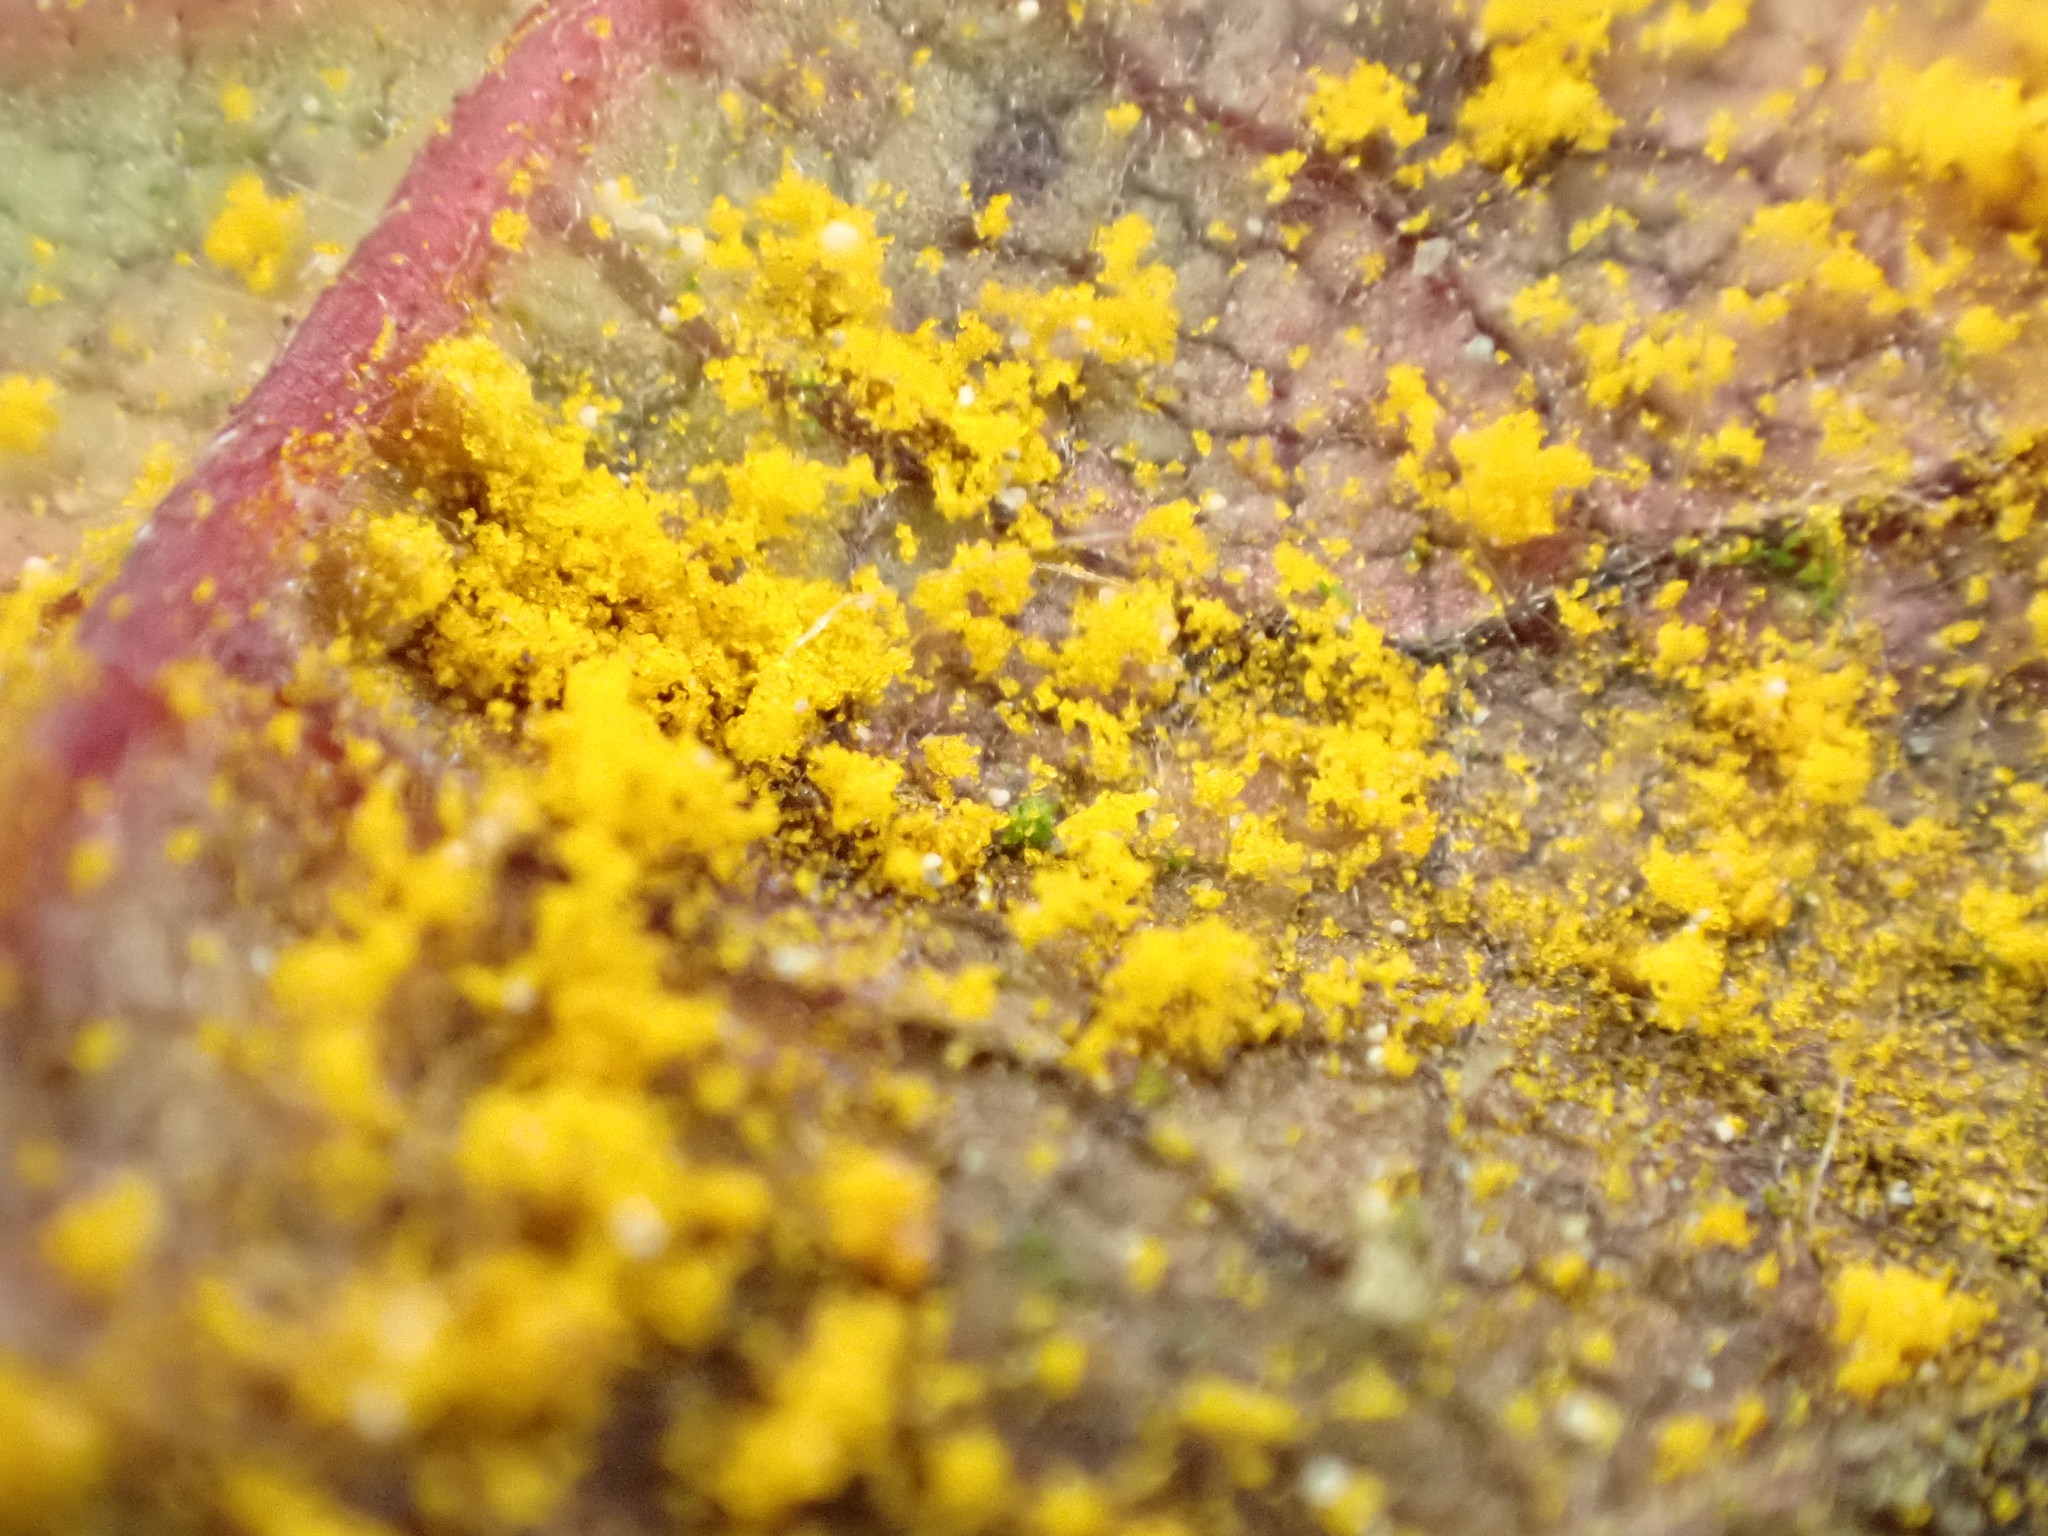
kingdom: Fungi
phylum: Basidiomycota
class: Pucciniomycetes
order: Pucciniales
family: Phragmidiaceae
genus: Phragmidium
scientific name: Phragmidium rubi-idaei
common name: Raspberry rust
